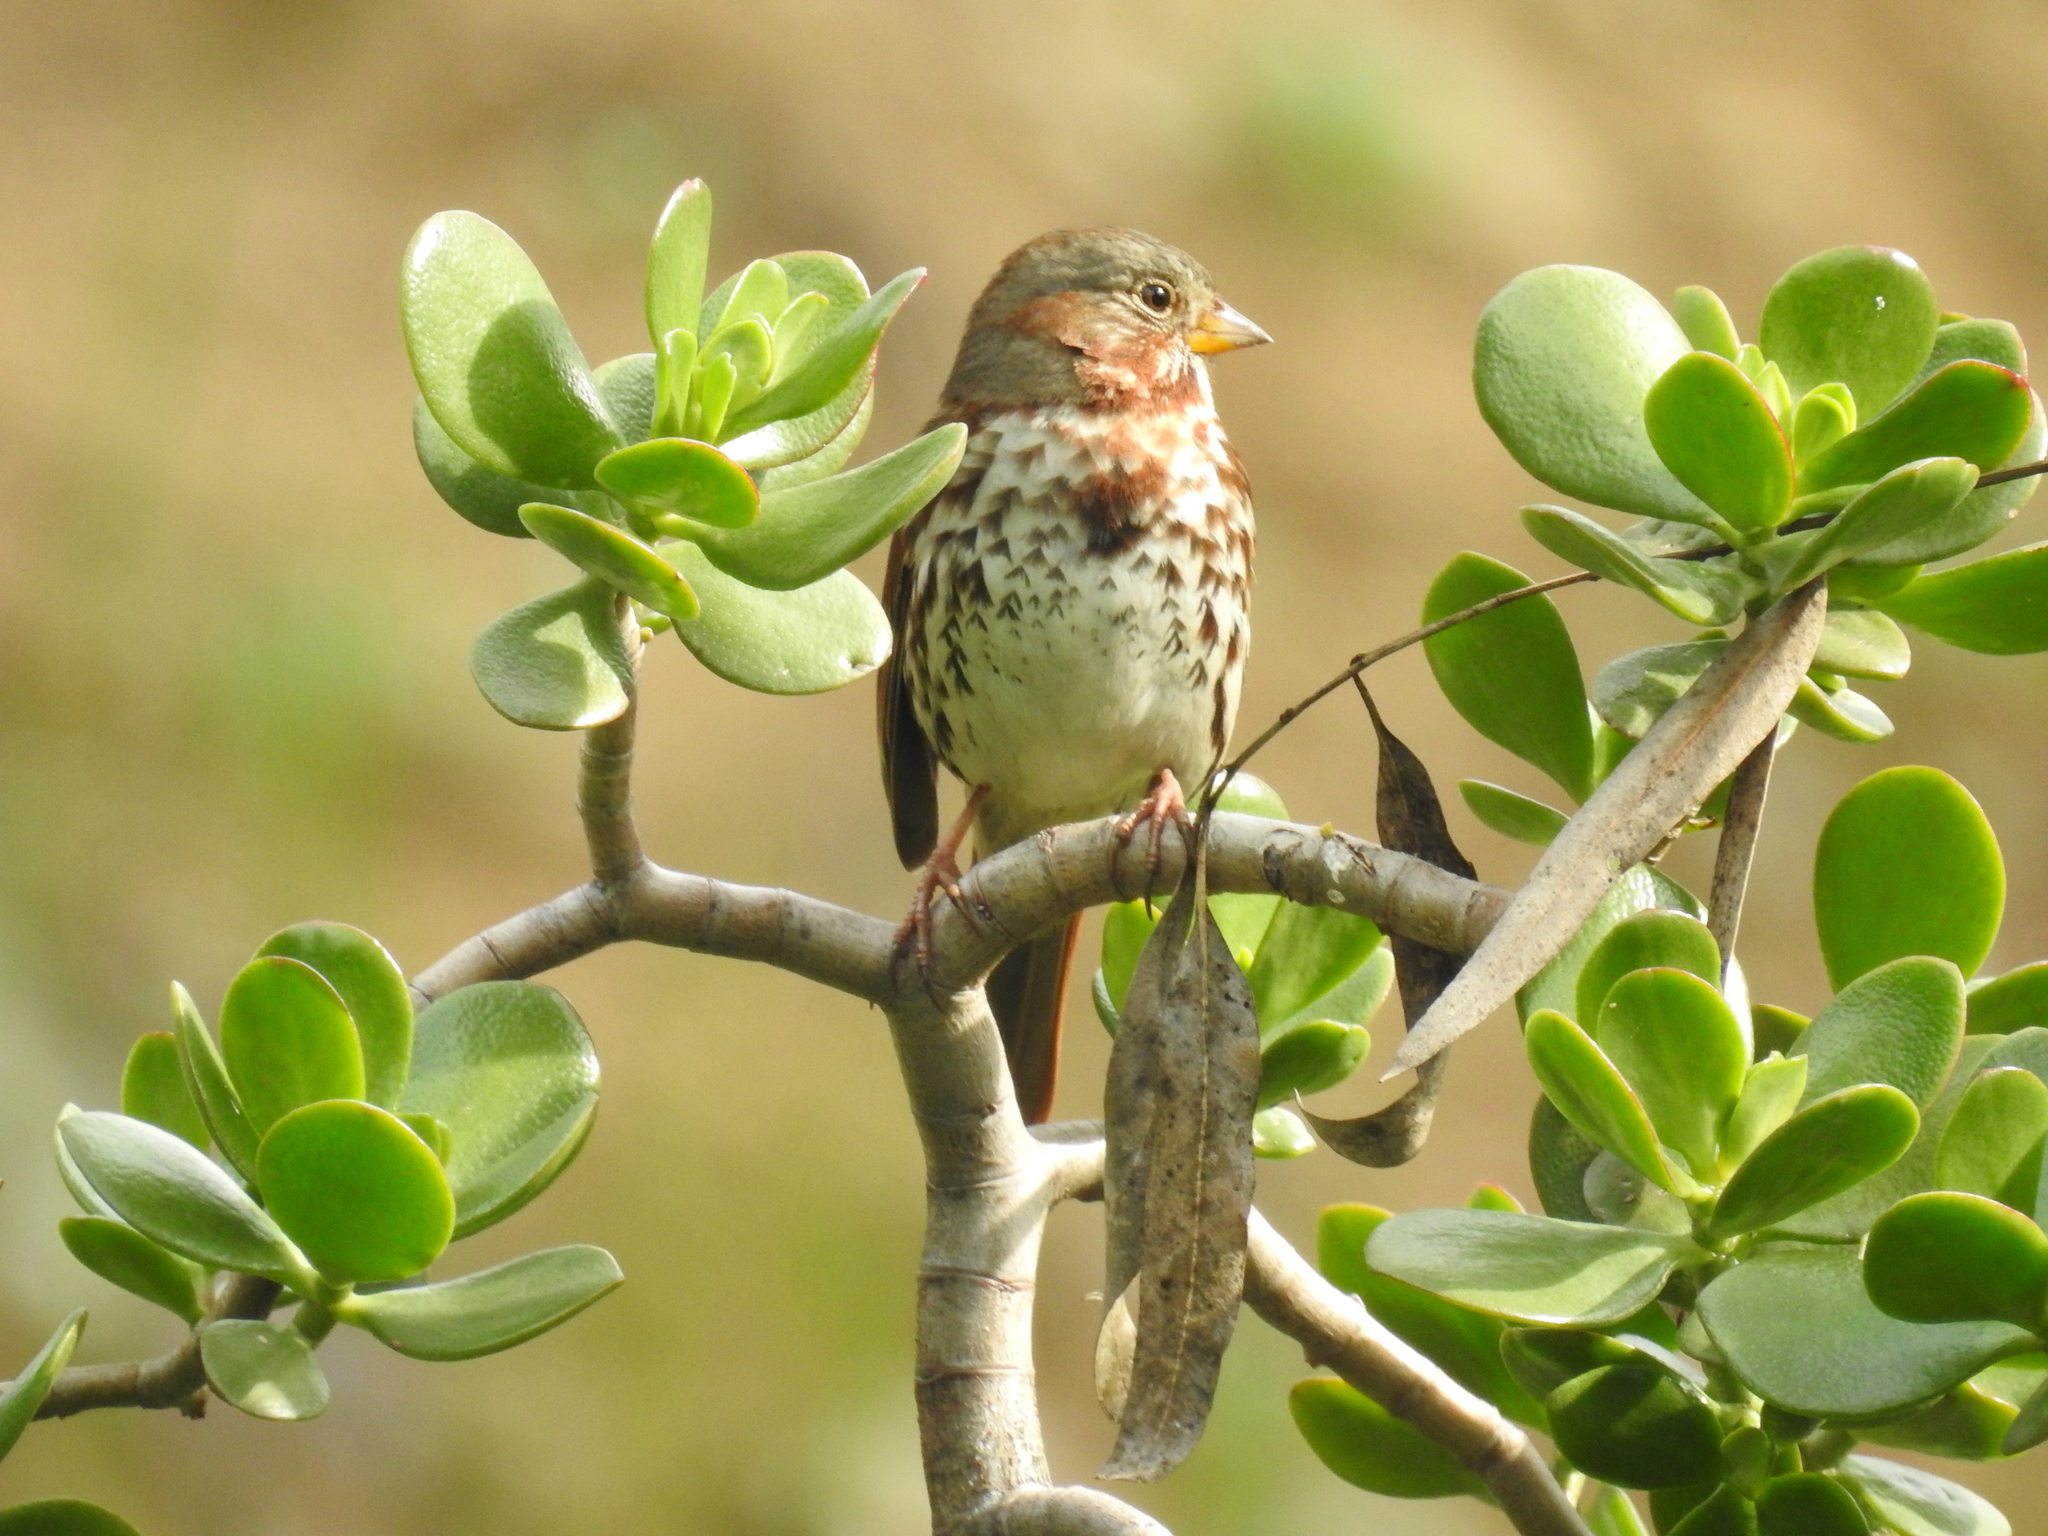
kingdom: Animalia
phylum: Chordata
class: Aves
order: Passeriformes
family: Passerellidae
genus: Passerella
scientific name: Passerella iliaca
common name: Fox sparrow
